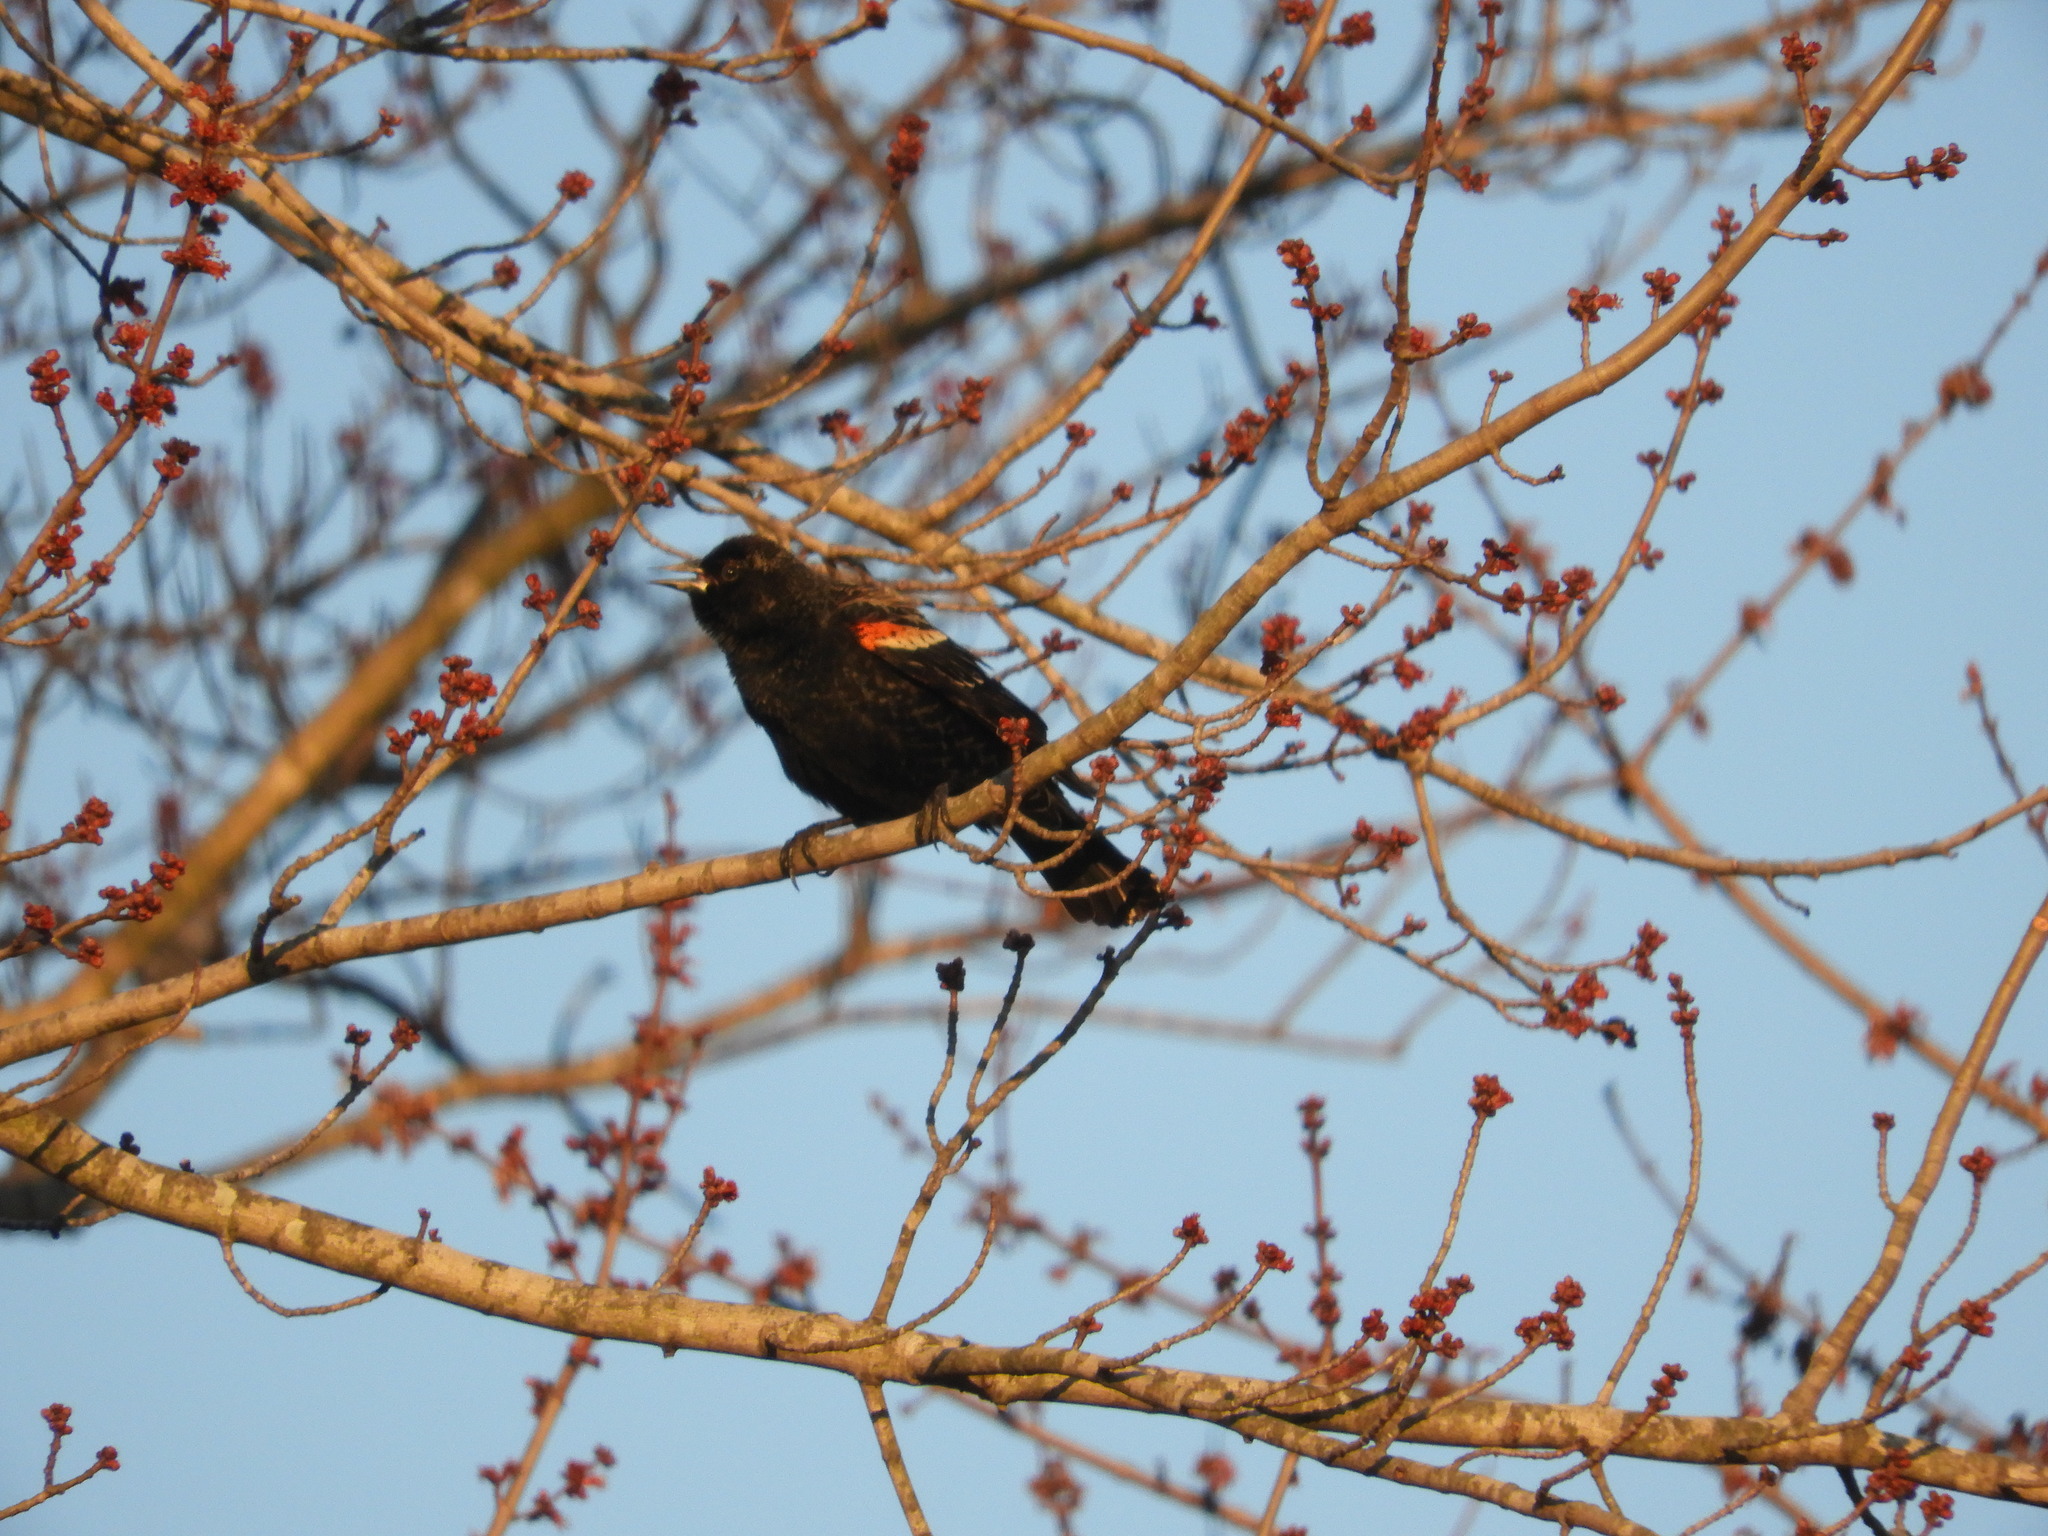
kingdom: Animalia
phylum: Chordata
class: Aves
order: Passeriformes
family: Icteridae
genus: Agelaius
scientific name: Agelaius phoeniceus
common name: Red-winged blackbird
